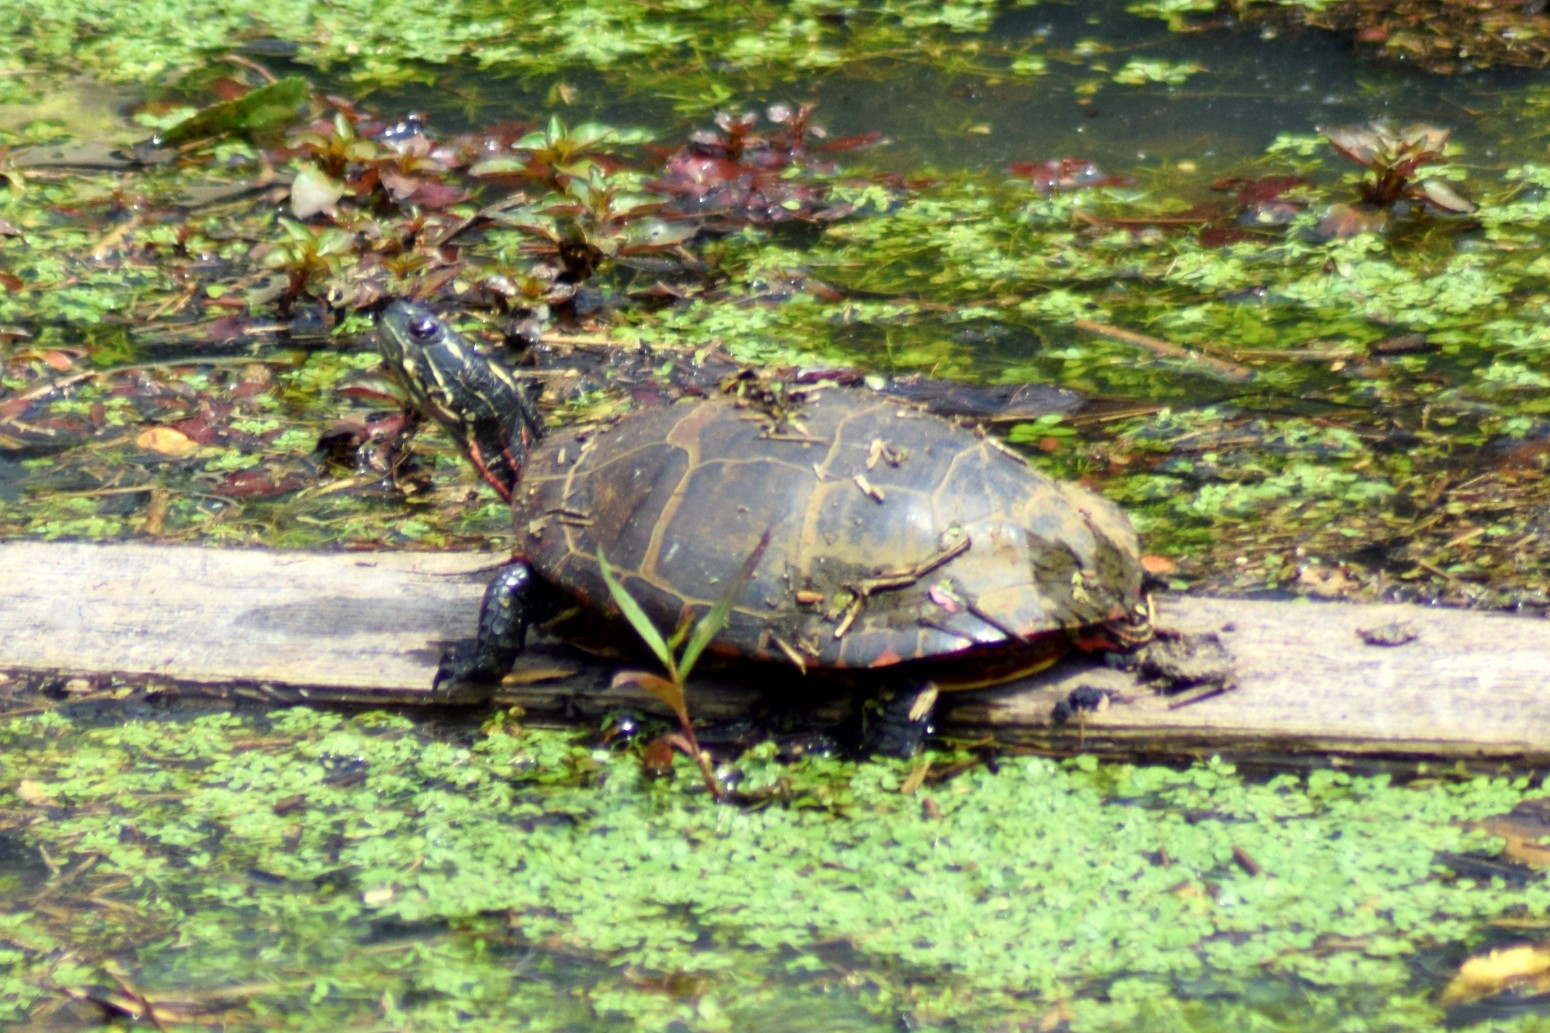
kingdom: Animalia
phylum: Chordata
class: Testudines
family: Emydidae
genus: Chrysemys
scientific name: Chrysemys picta
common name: Painted turtle
